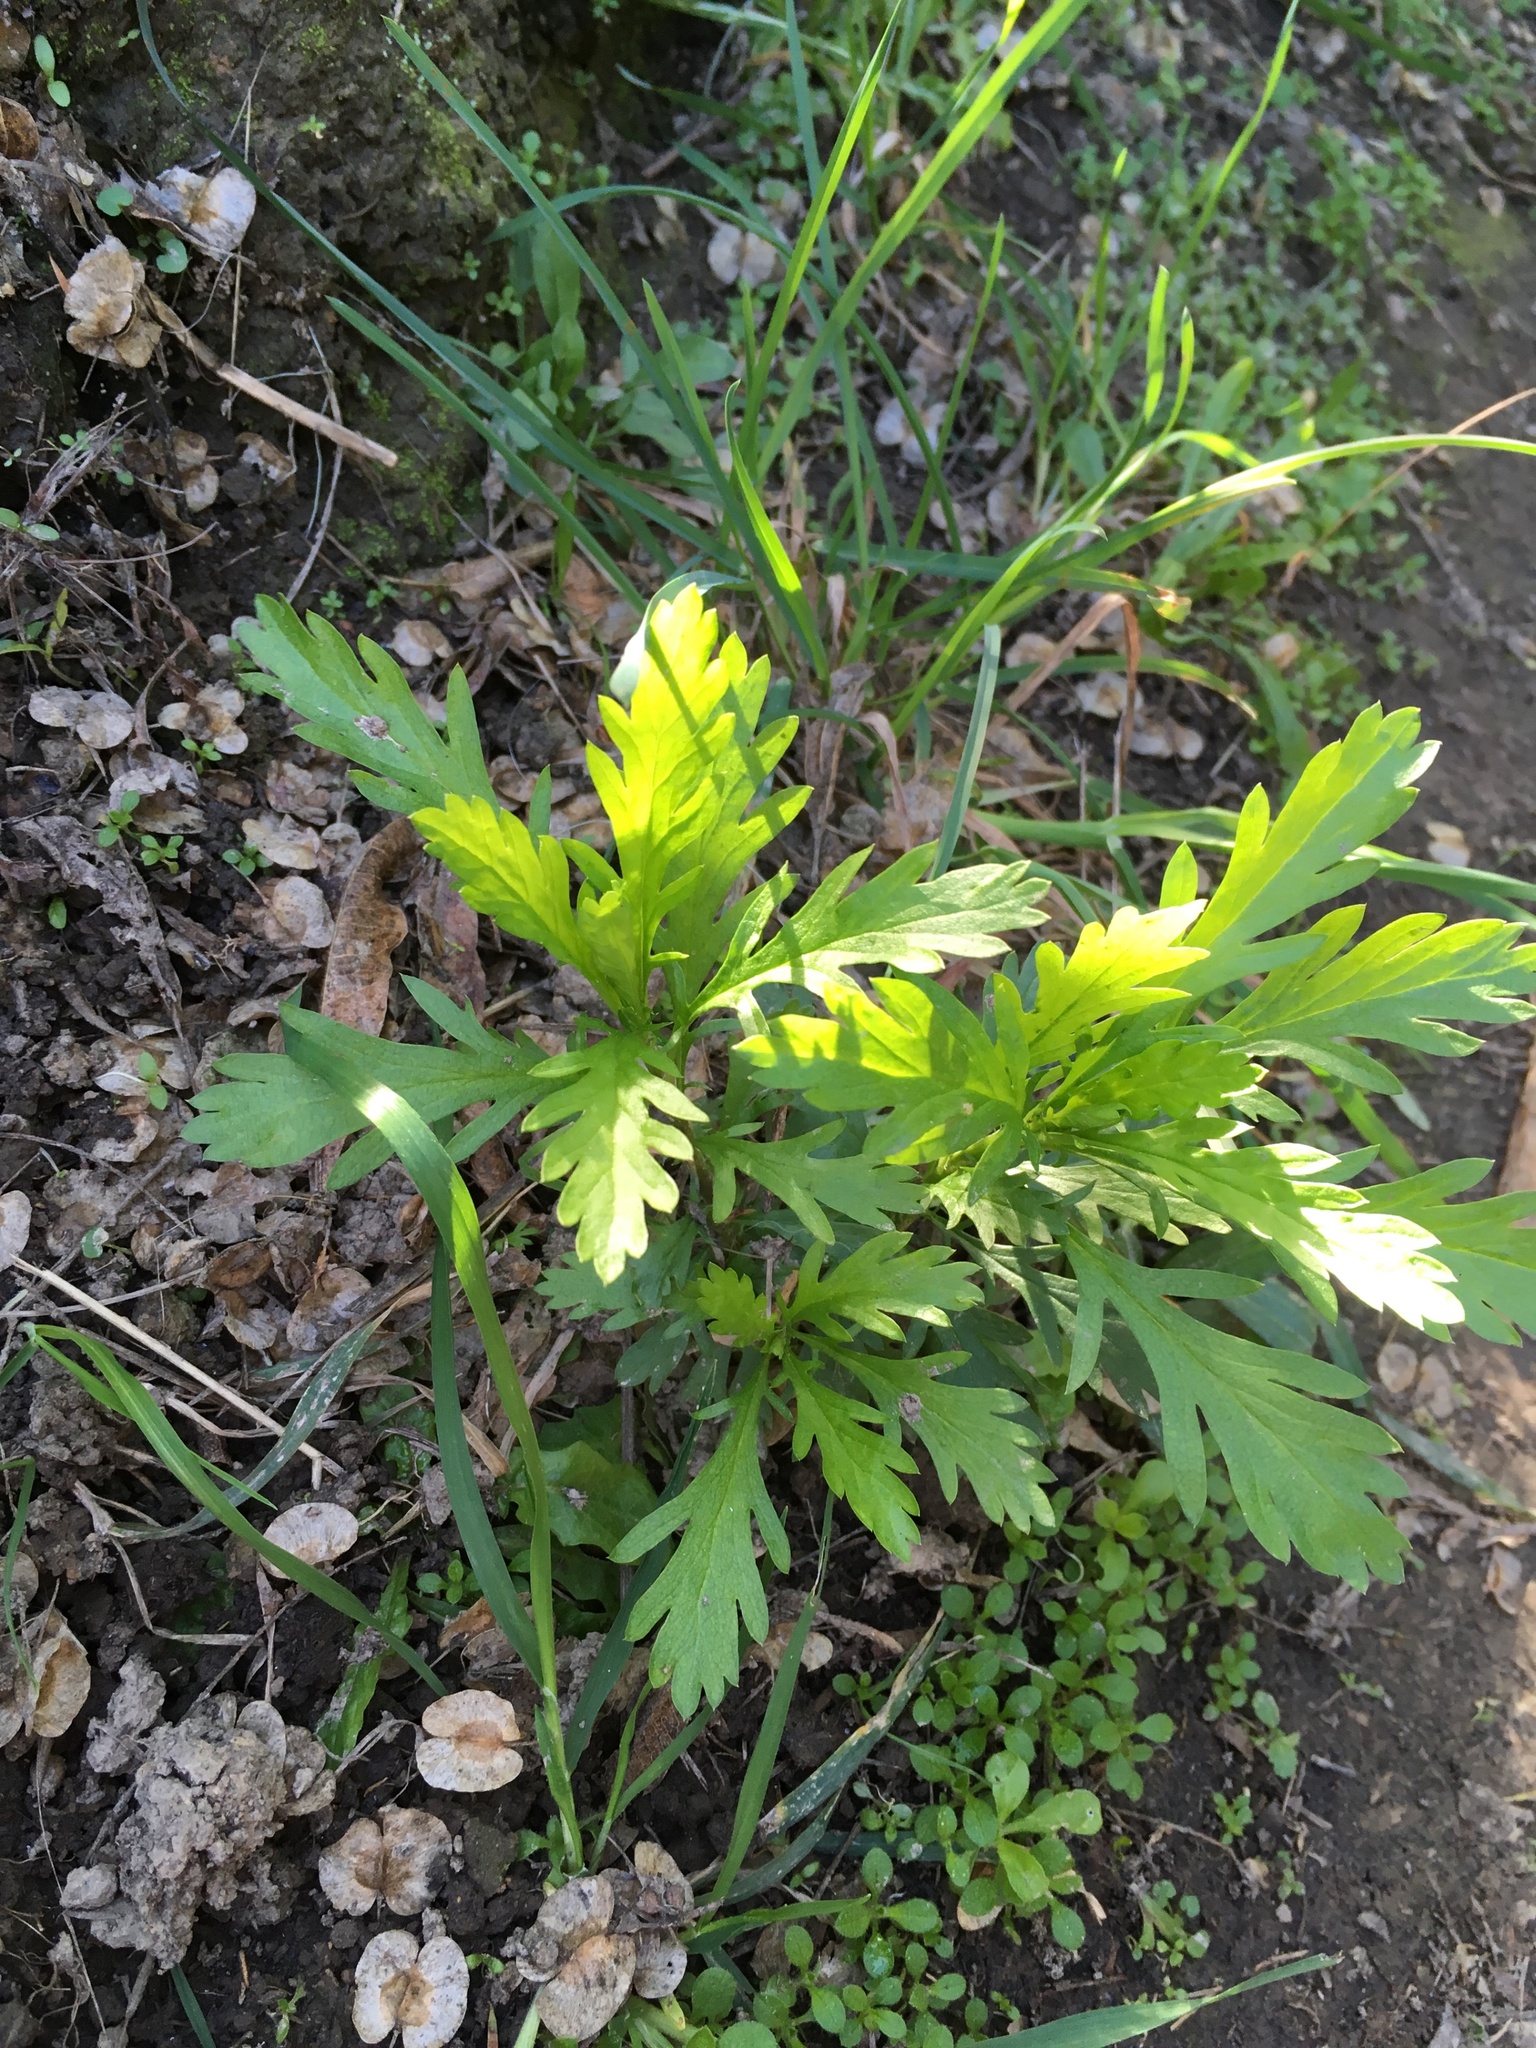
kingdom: Plantae
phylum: Tracheophyta
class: Magnoliopsida
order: Asterales
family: Asteraceae
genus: Euryops
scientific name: Euryops chrysanthemoides
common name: Bull's eye
